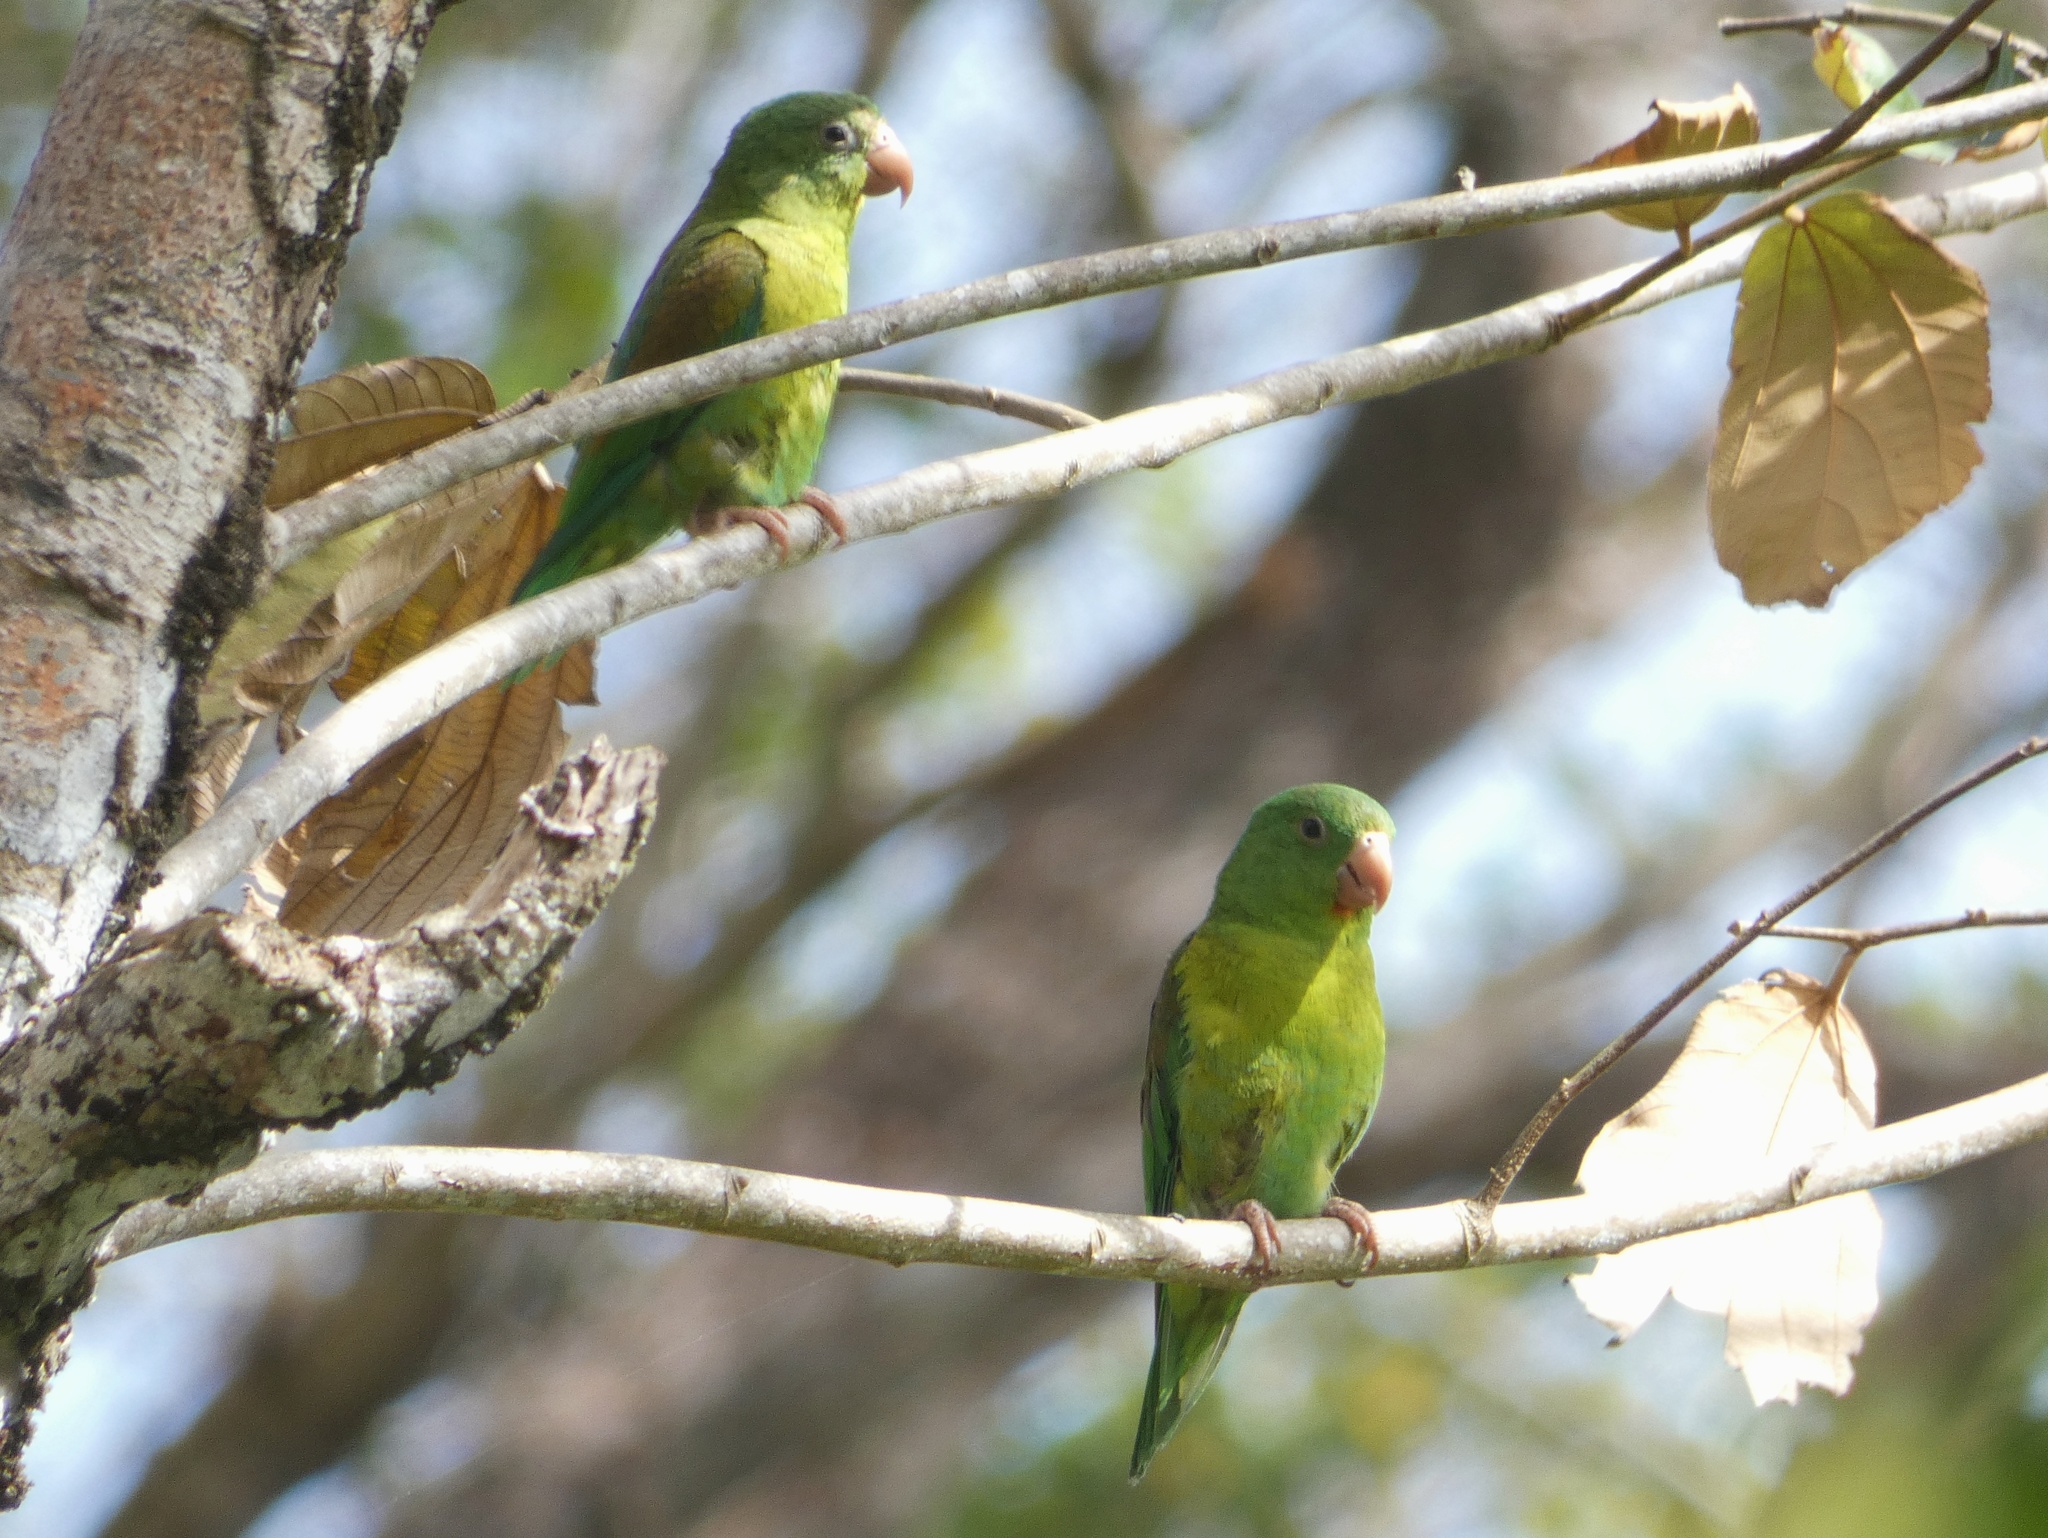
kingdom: Animalia
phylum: Chordata
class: Aves
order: Psittaciformes
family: Psittacidae
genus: Brotogeris
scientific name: Brotogeris jugularis
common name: Orange-chinned parakeet
